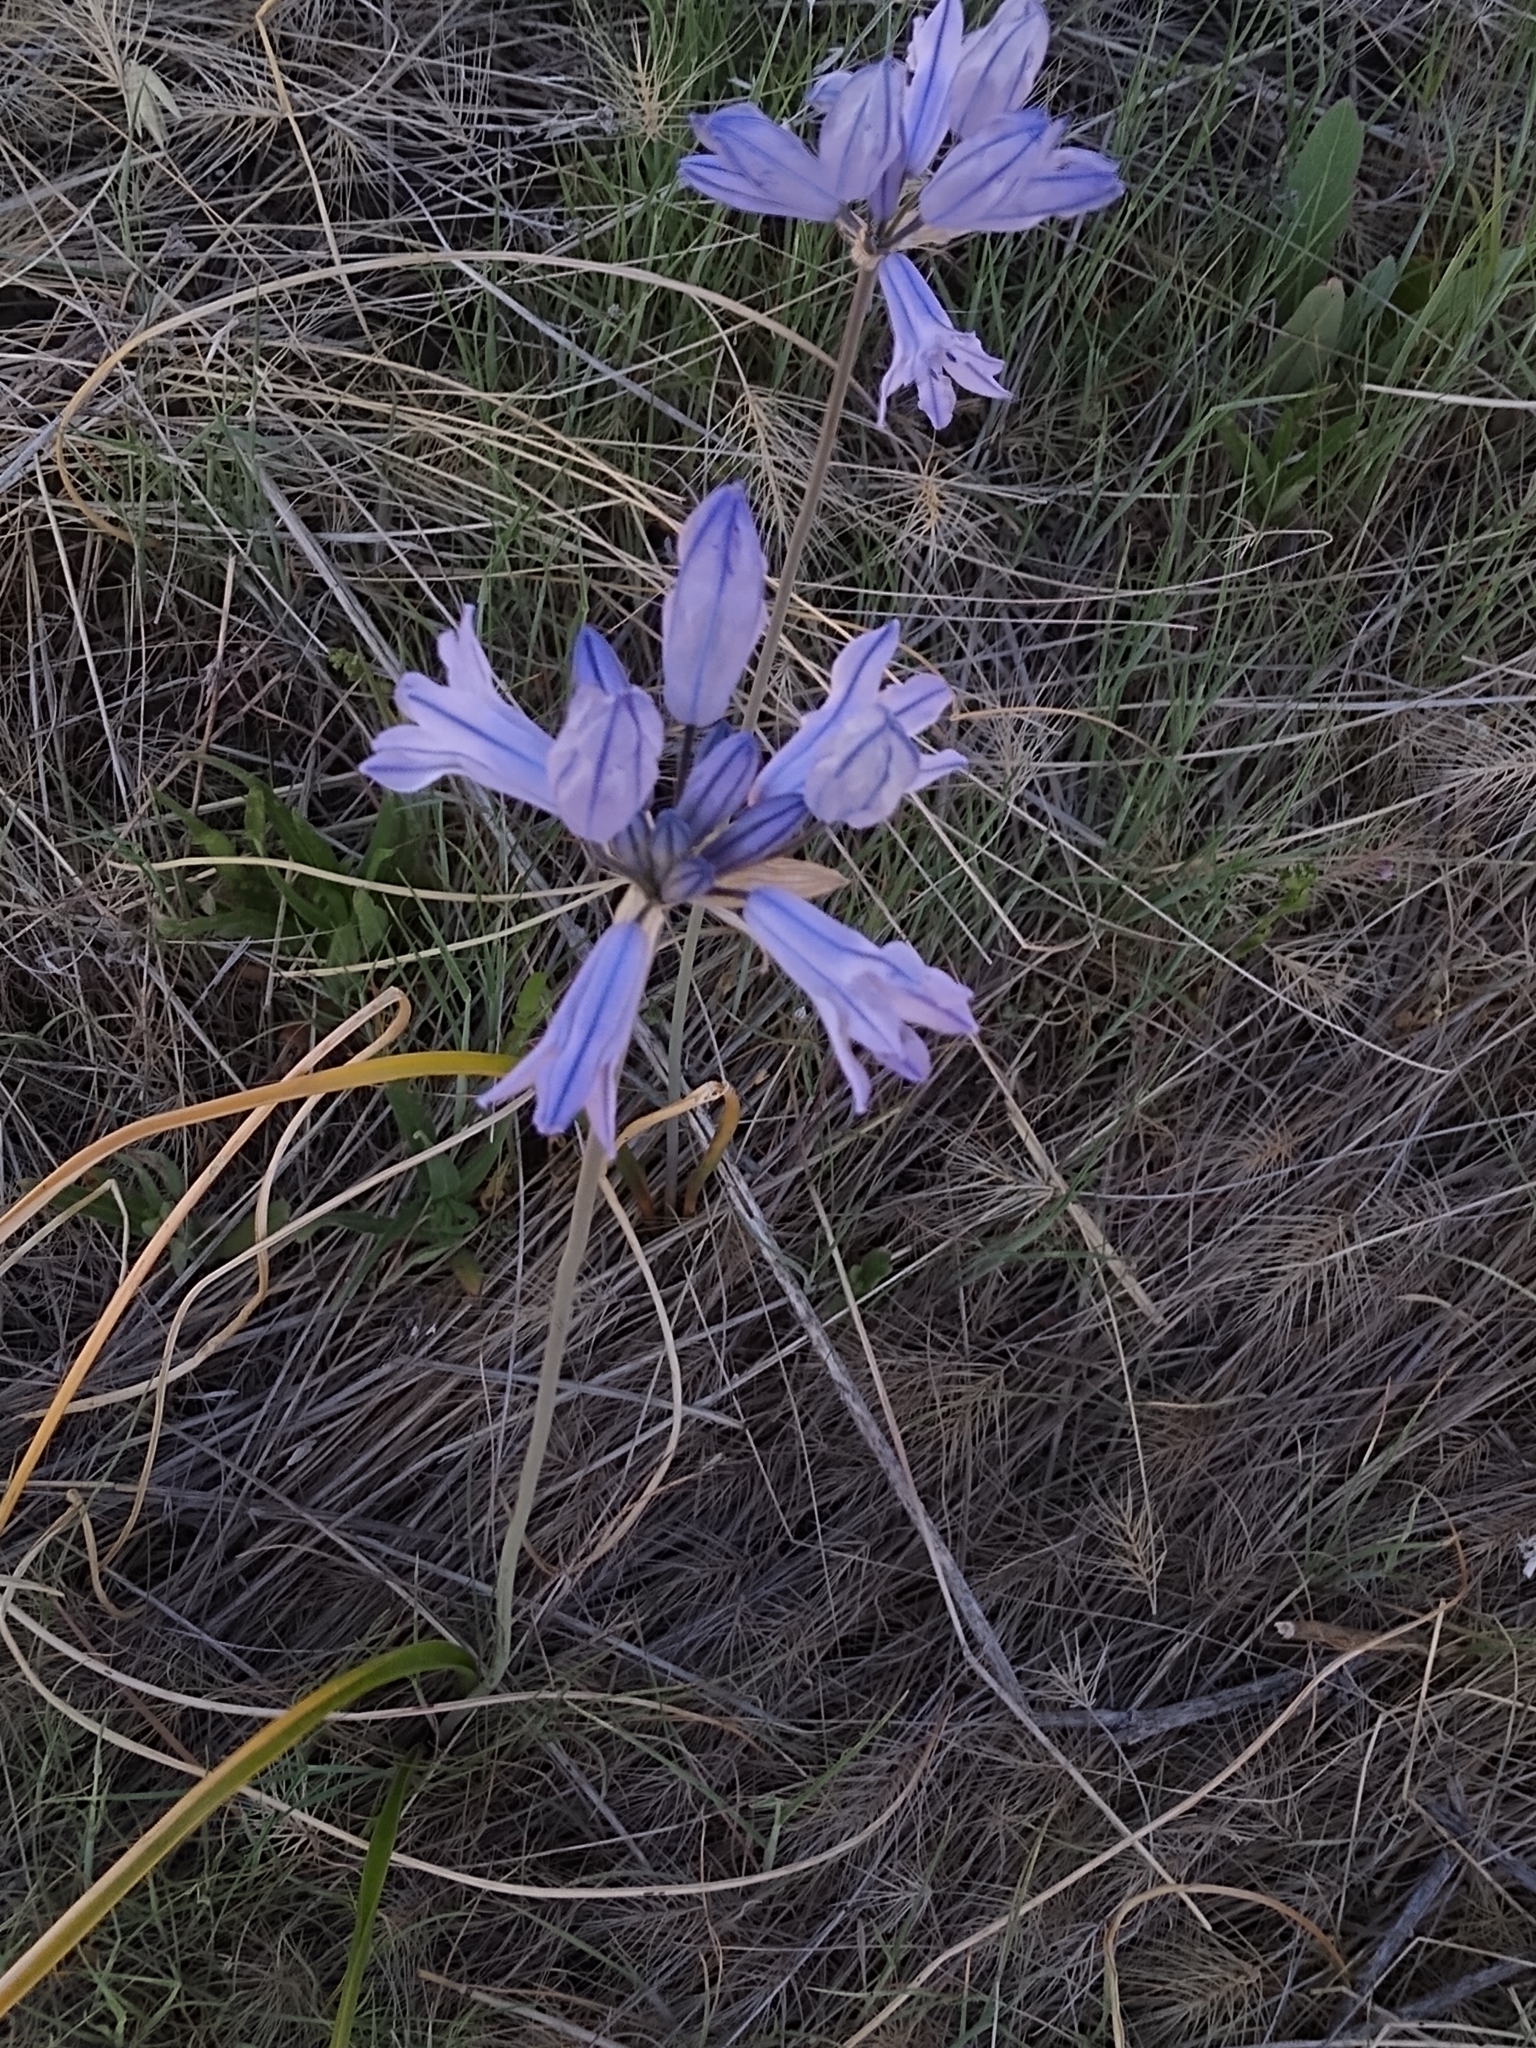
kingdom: Plantae
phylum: Tracheophyta
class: Liliopsida
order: Asparagales
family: Asparagaceae
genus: Triteleia
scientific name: Triteleia grandiflora
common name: Wild hyacinth
